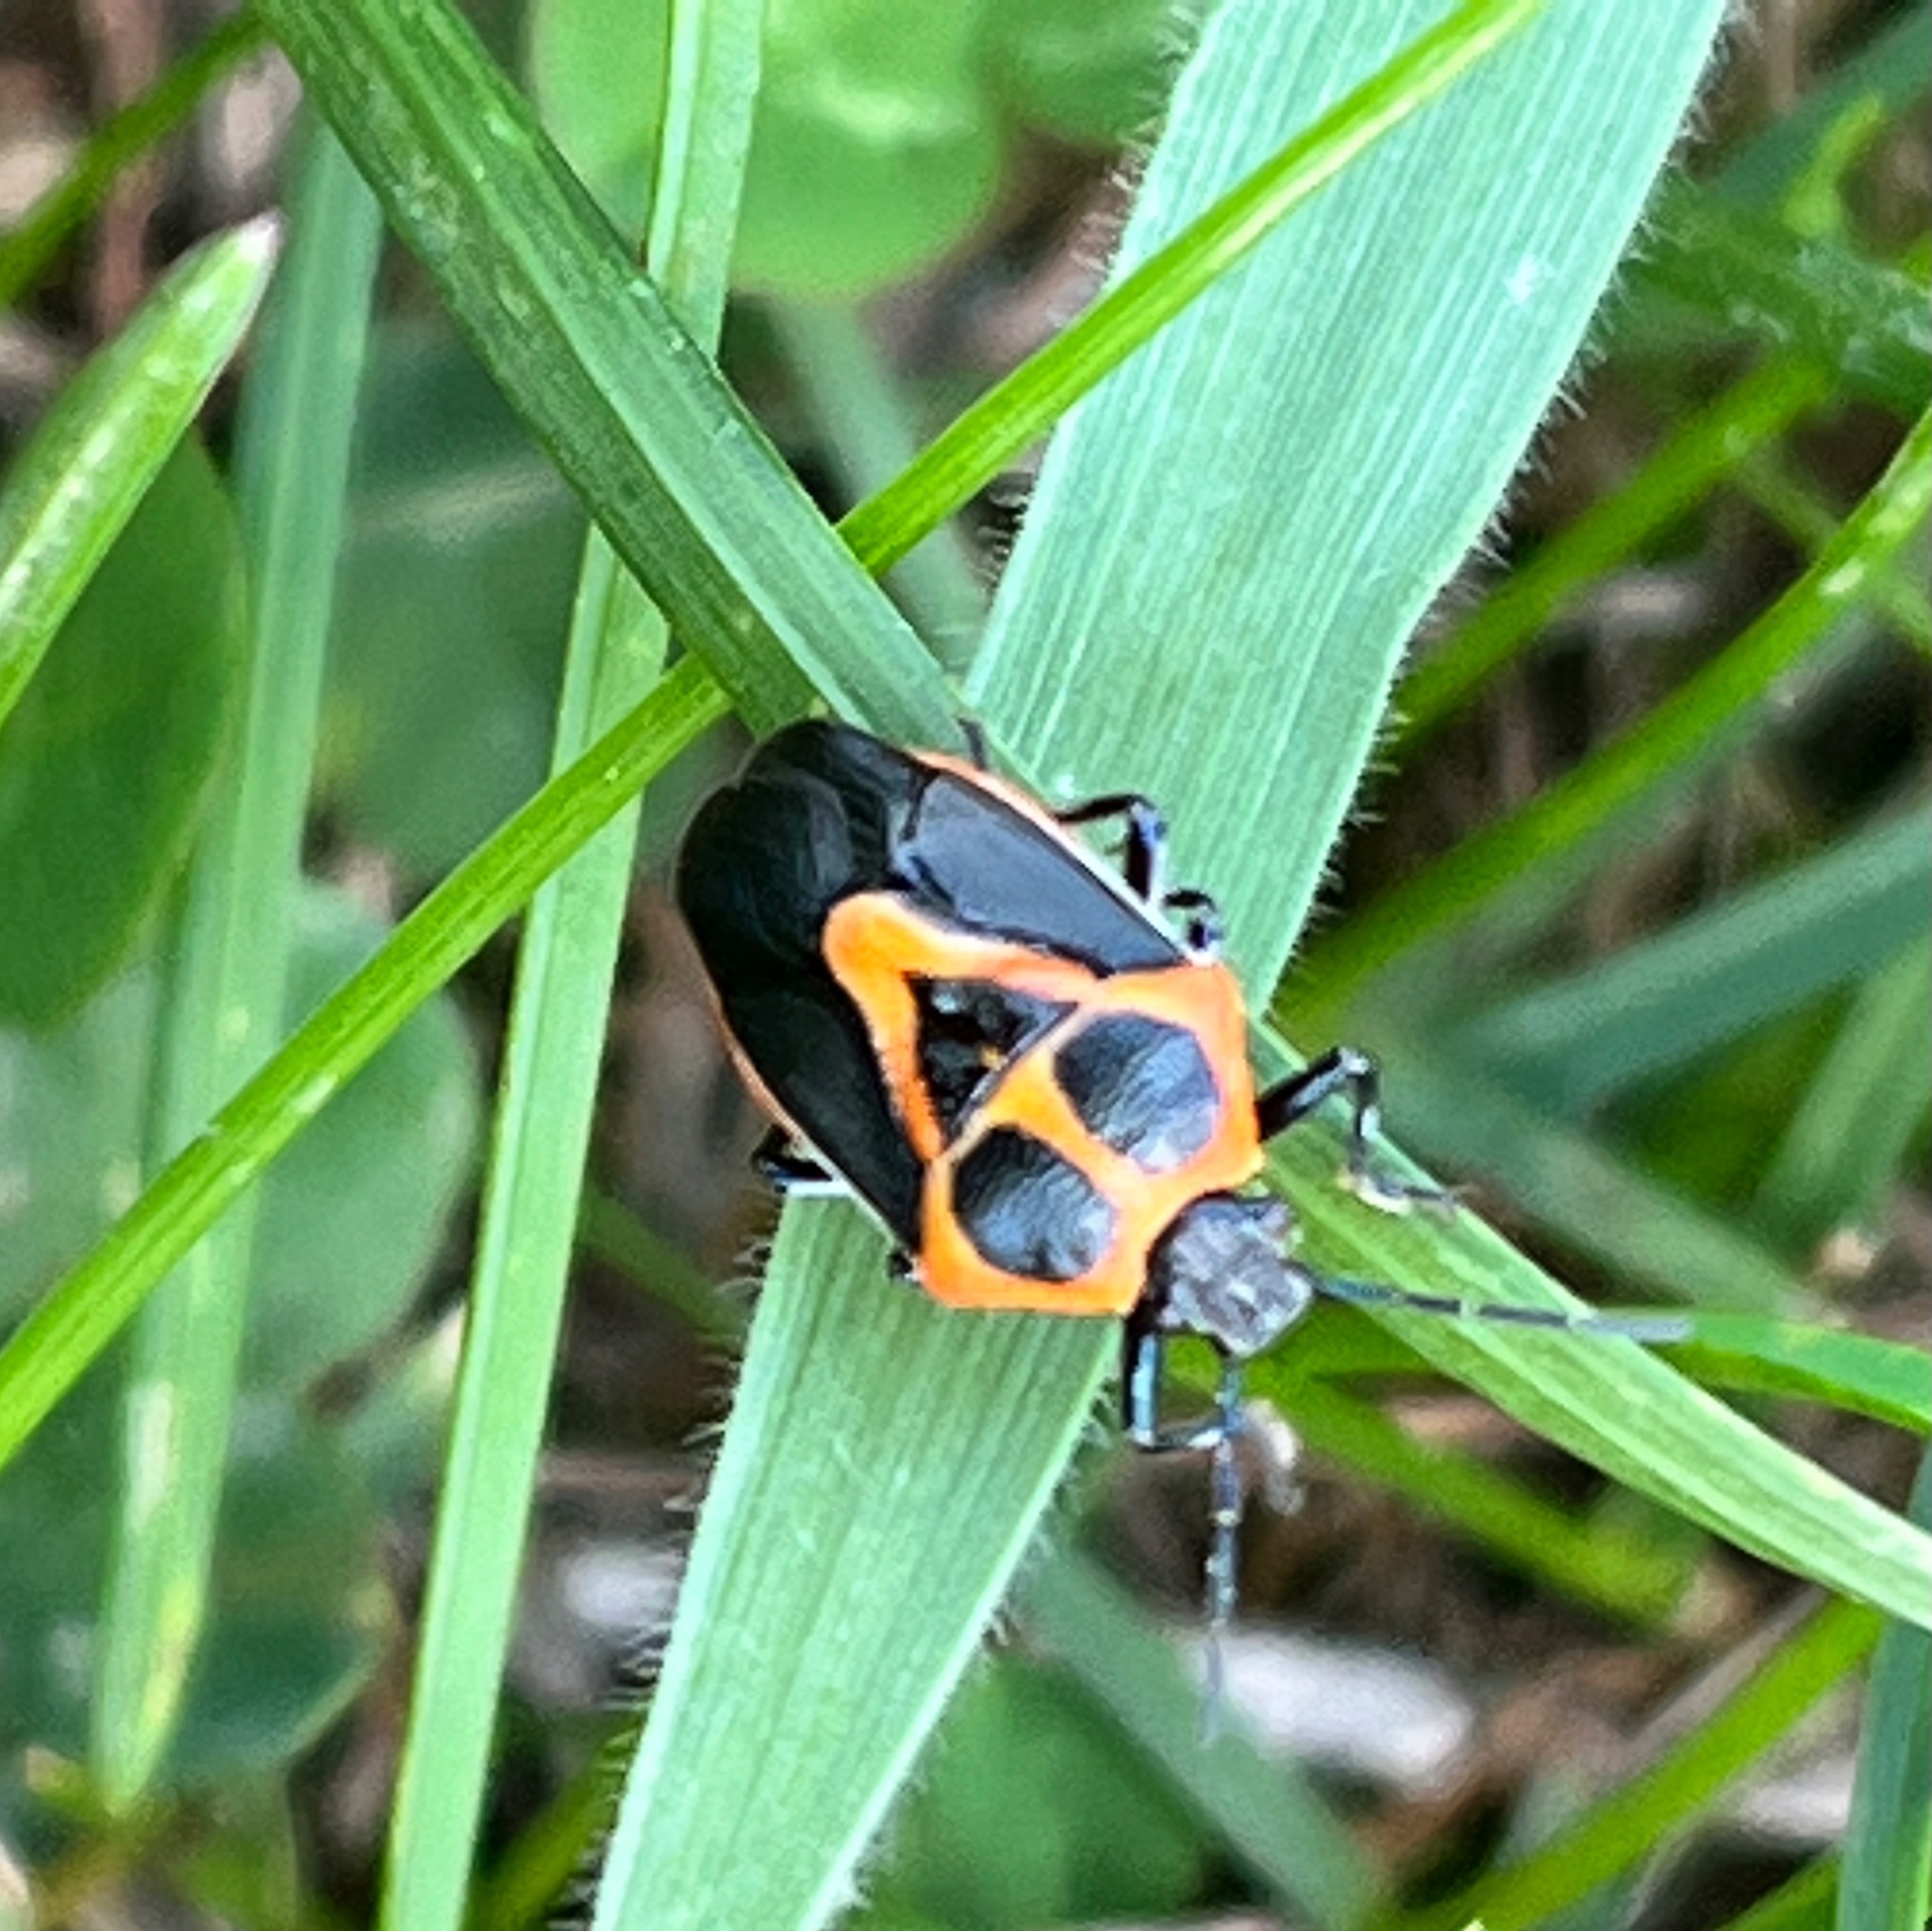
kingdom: Animalia
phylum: Arthropoda
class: Insecta
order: Hemiptera
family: Pentatomidae
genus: Perillus
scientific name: Perillus strigipes
